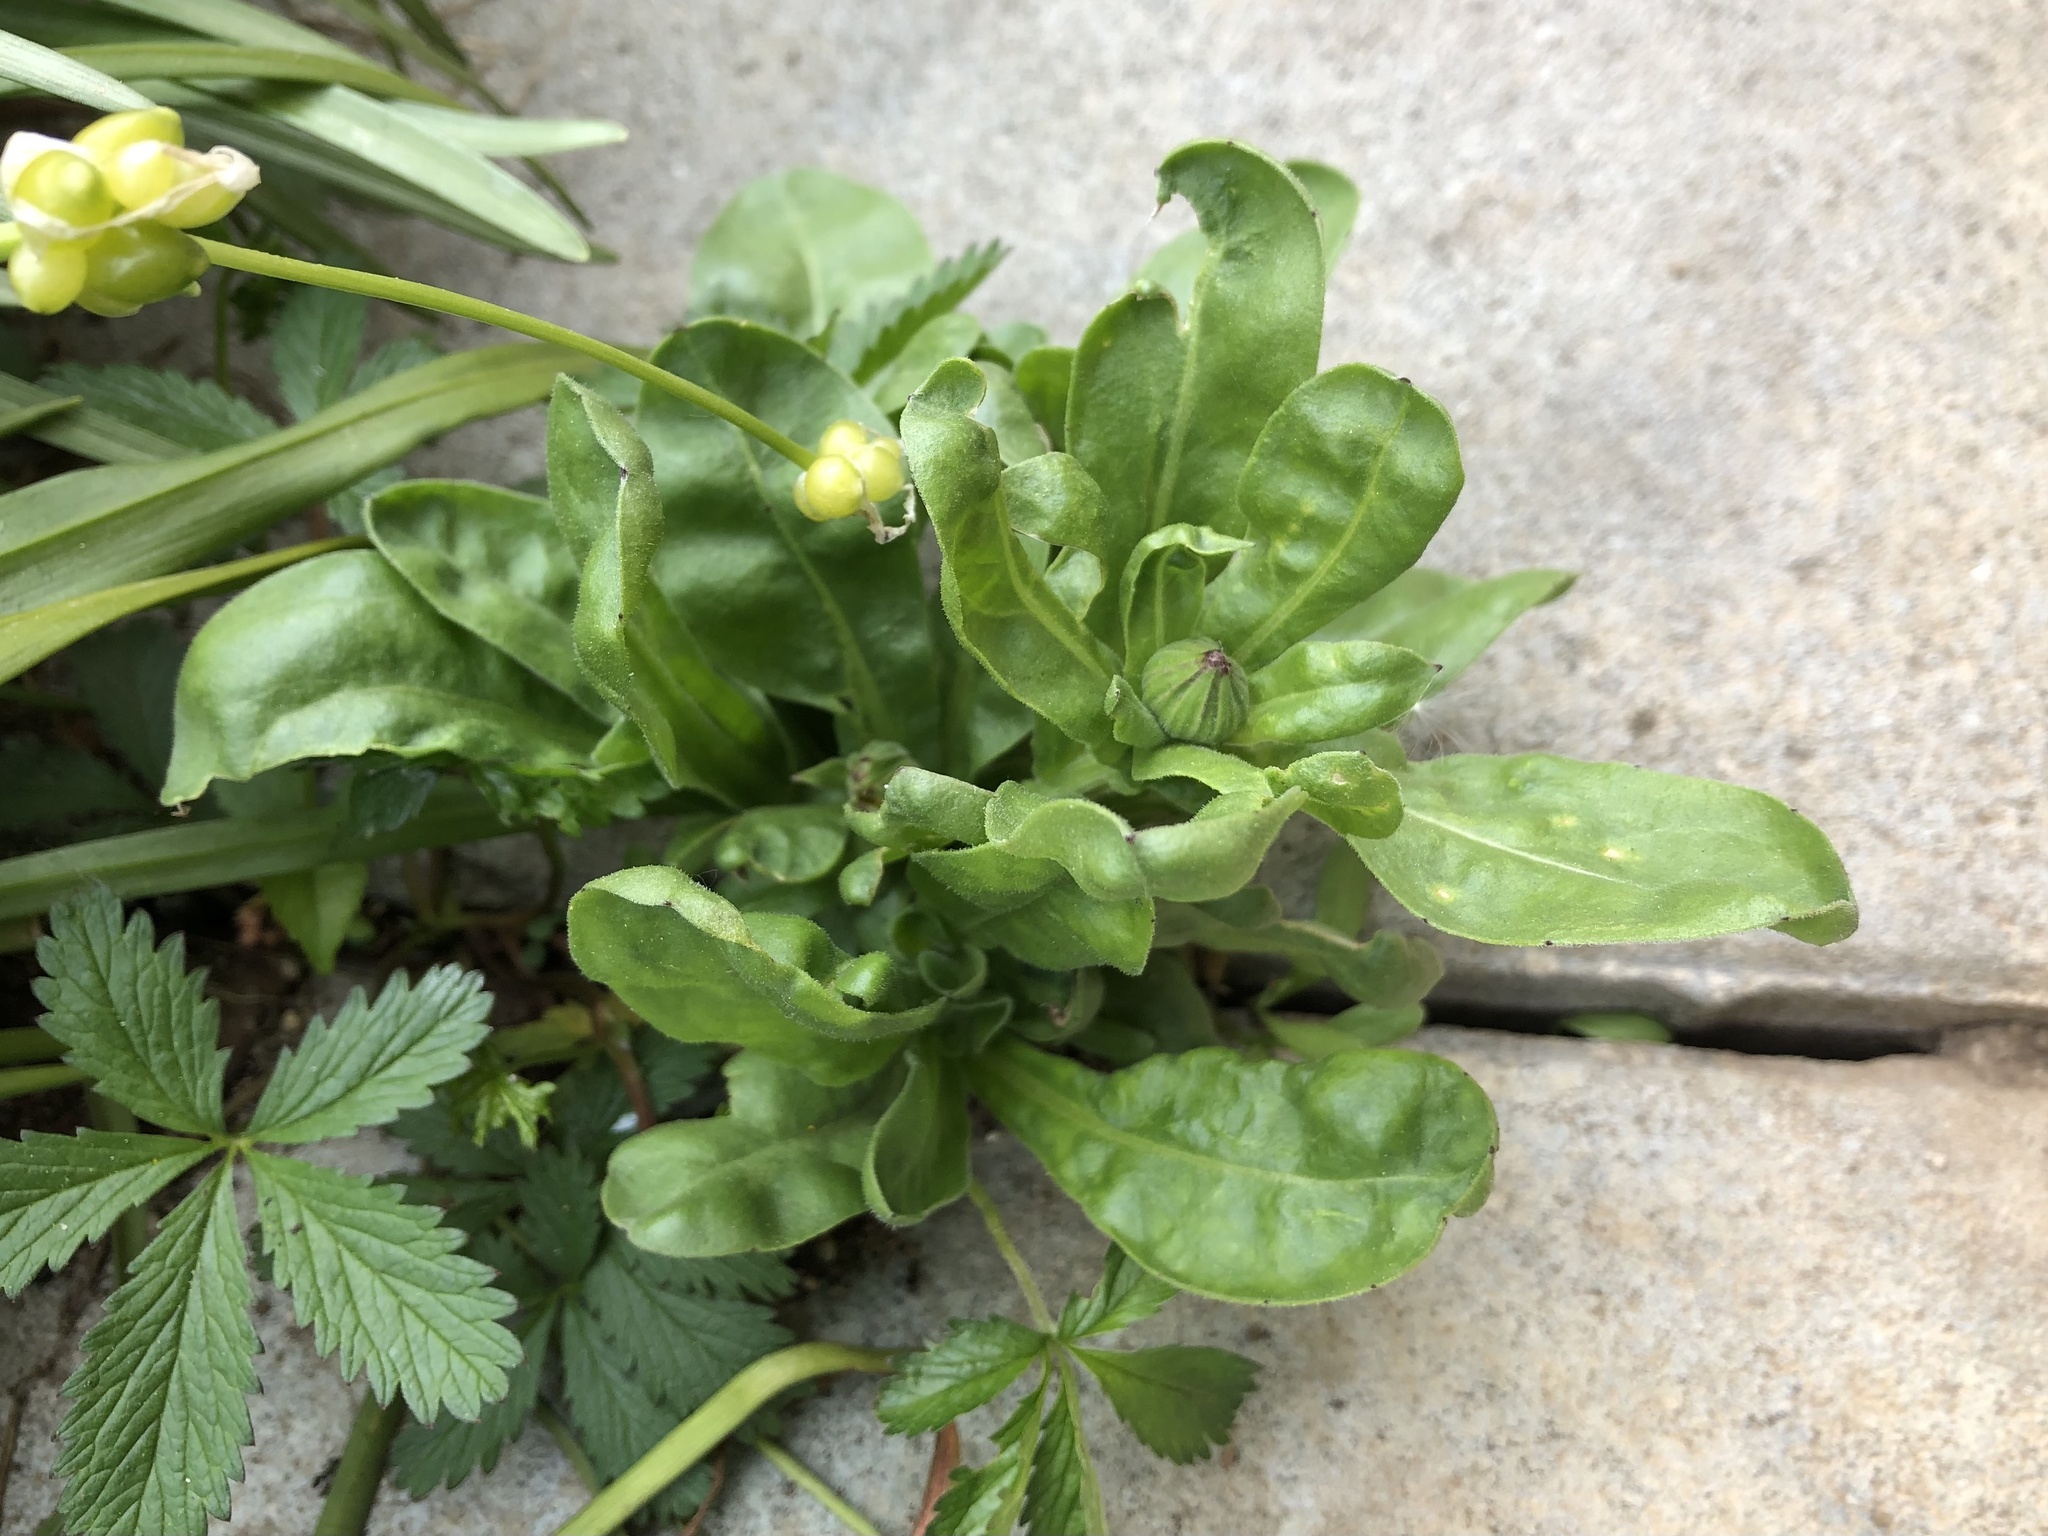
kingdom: Plantae
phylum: Tracheophyta
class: Magnoliopsida
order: Asterales
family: Asteraceae
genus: Calendula
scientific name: Calendula officinalis
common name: Pot marigold
